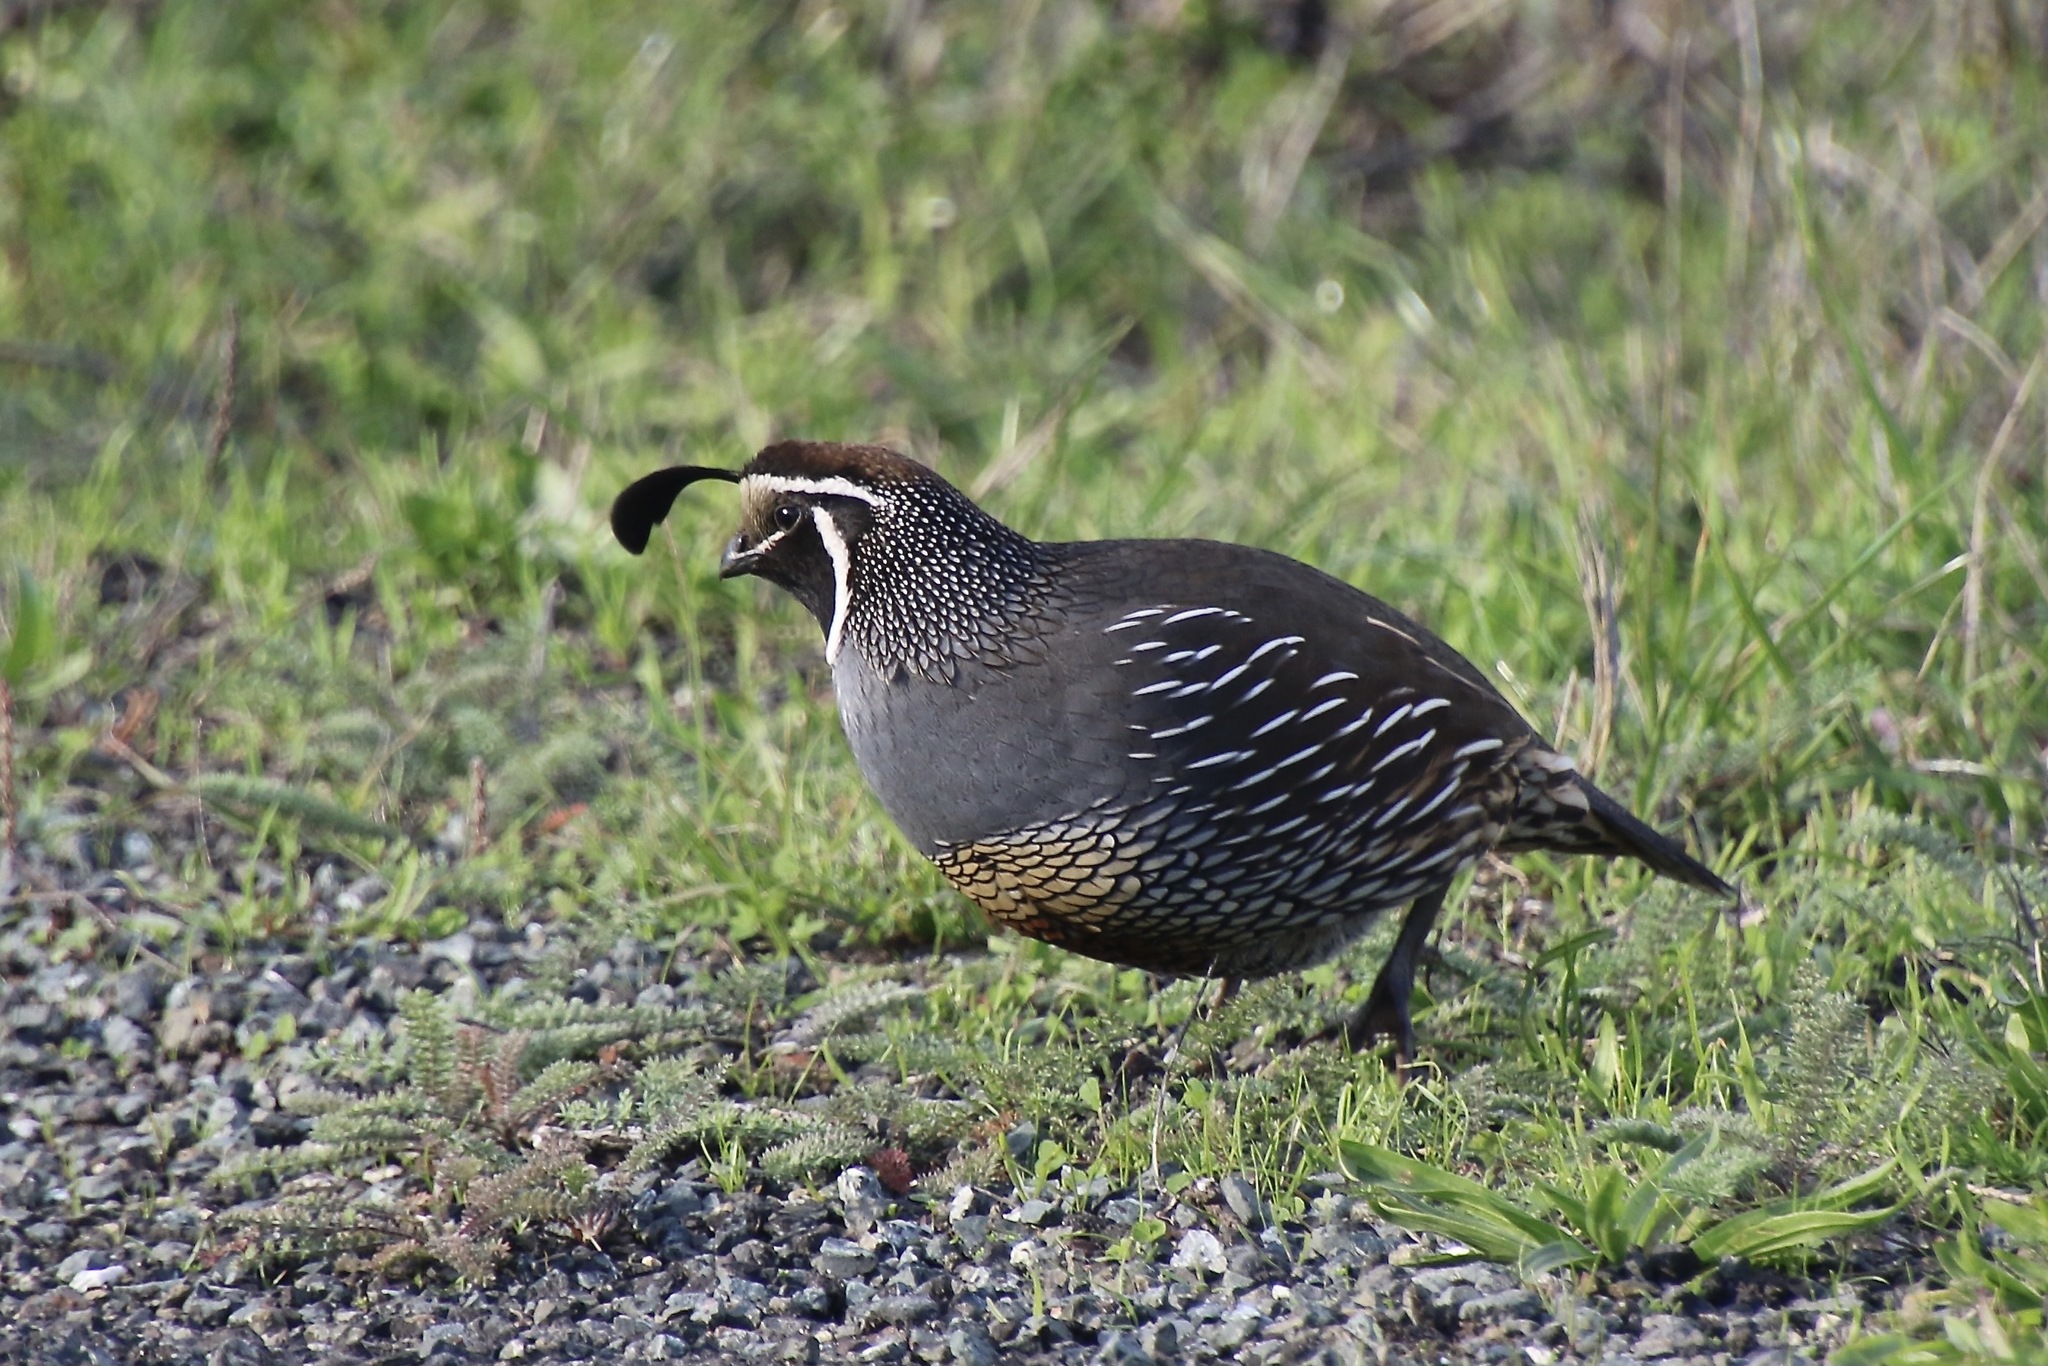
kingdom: Animalia
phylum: Chordata
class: Aves
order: Galliformes
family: Odontophoridae
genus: Callipepla
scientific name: Callipepla californica
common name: California quail
